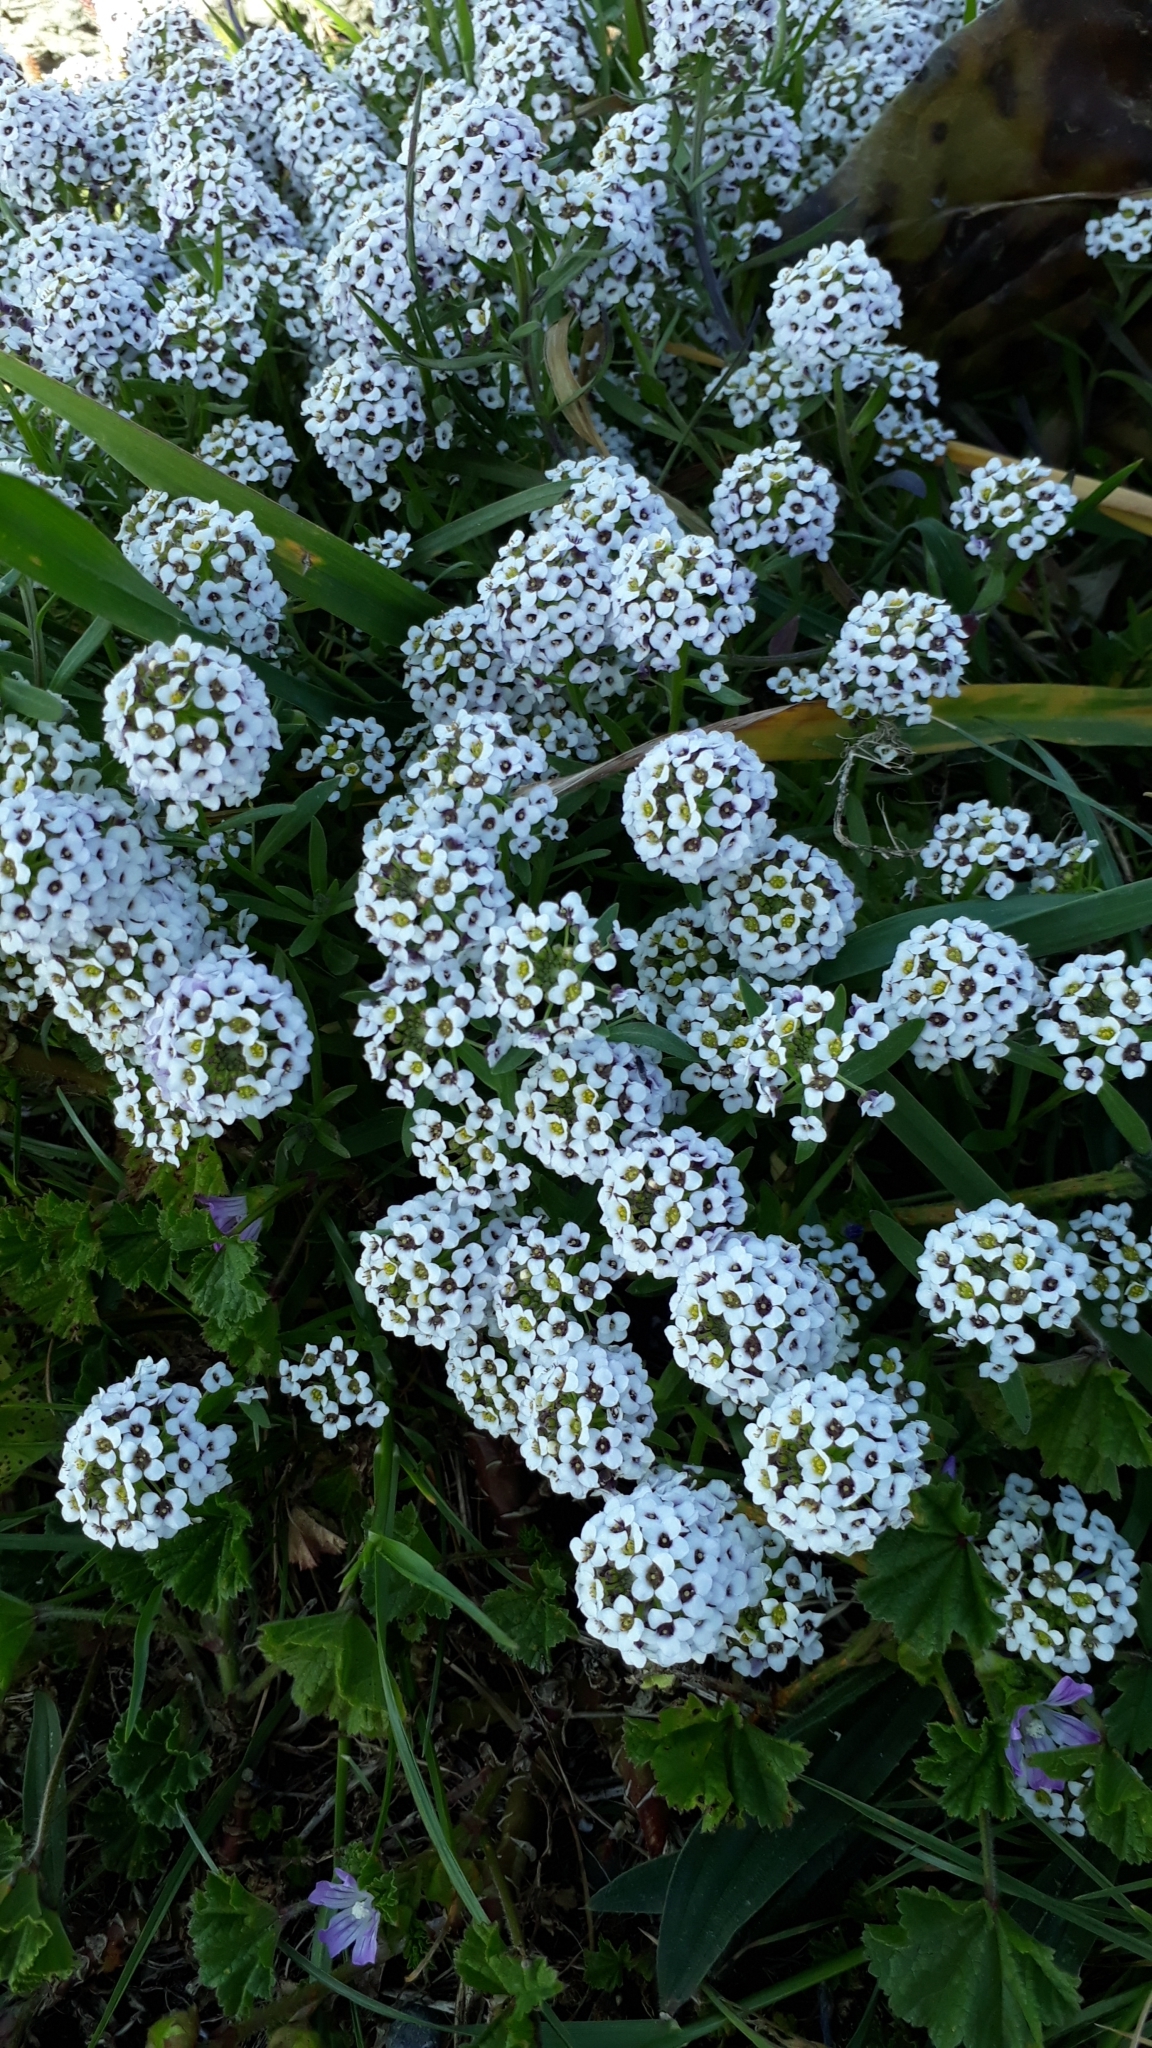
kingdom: Plantae
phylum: Tracheophyta
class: Magnoliopsida
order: Brassicales
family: Brassicaceae
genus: Lobularia
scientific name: Lobularia maritima
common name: Sweet alison
